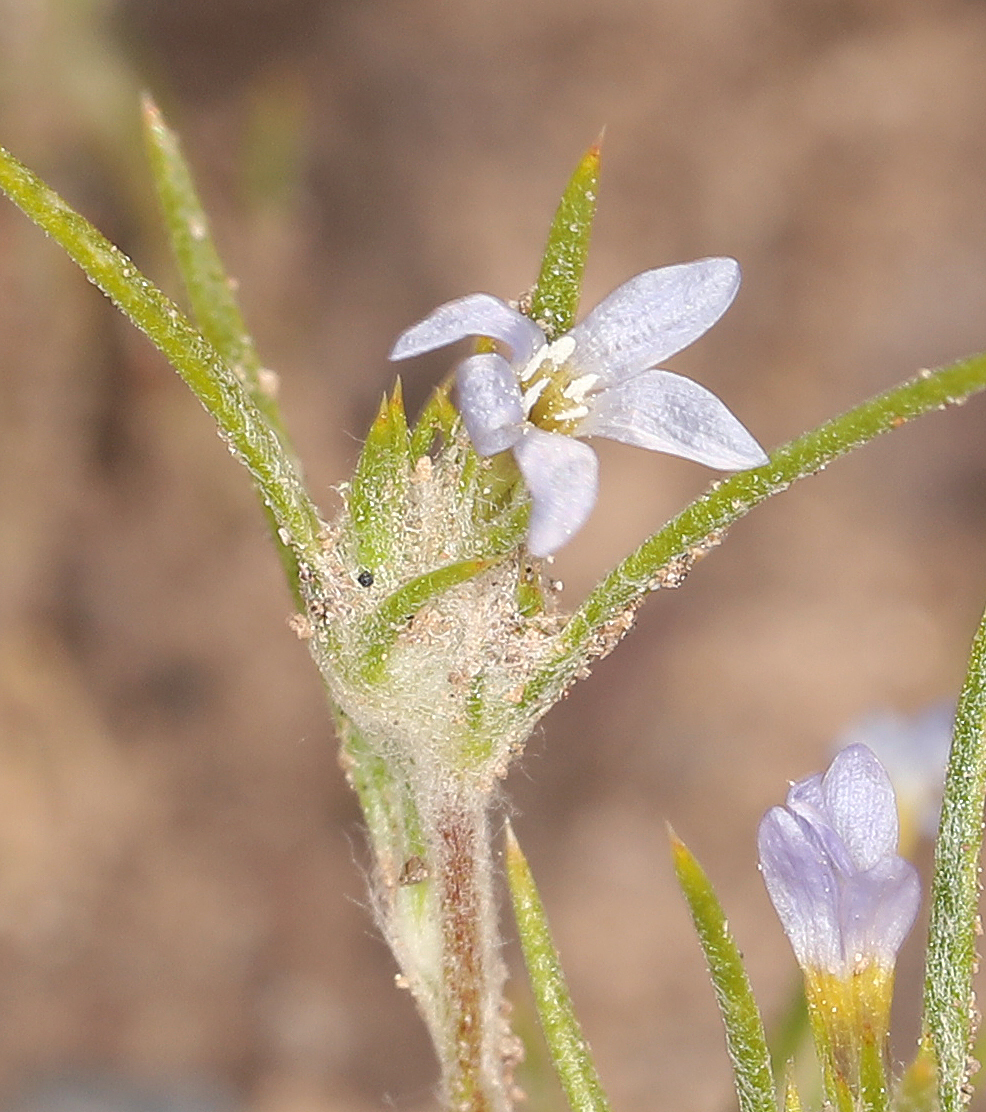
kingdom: Plantae
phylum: Tracheophyta
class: Magnoliopsida
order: Ericales
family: Polemoniaceae
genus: Eriastrum
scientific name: Eriastrum signatum
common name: Great basin woollystar
